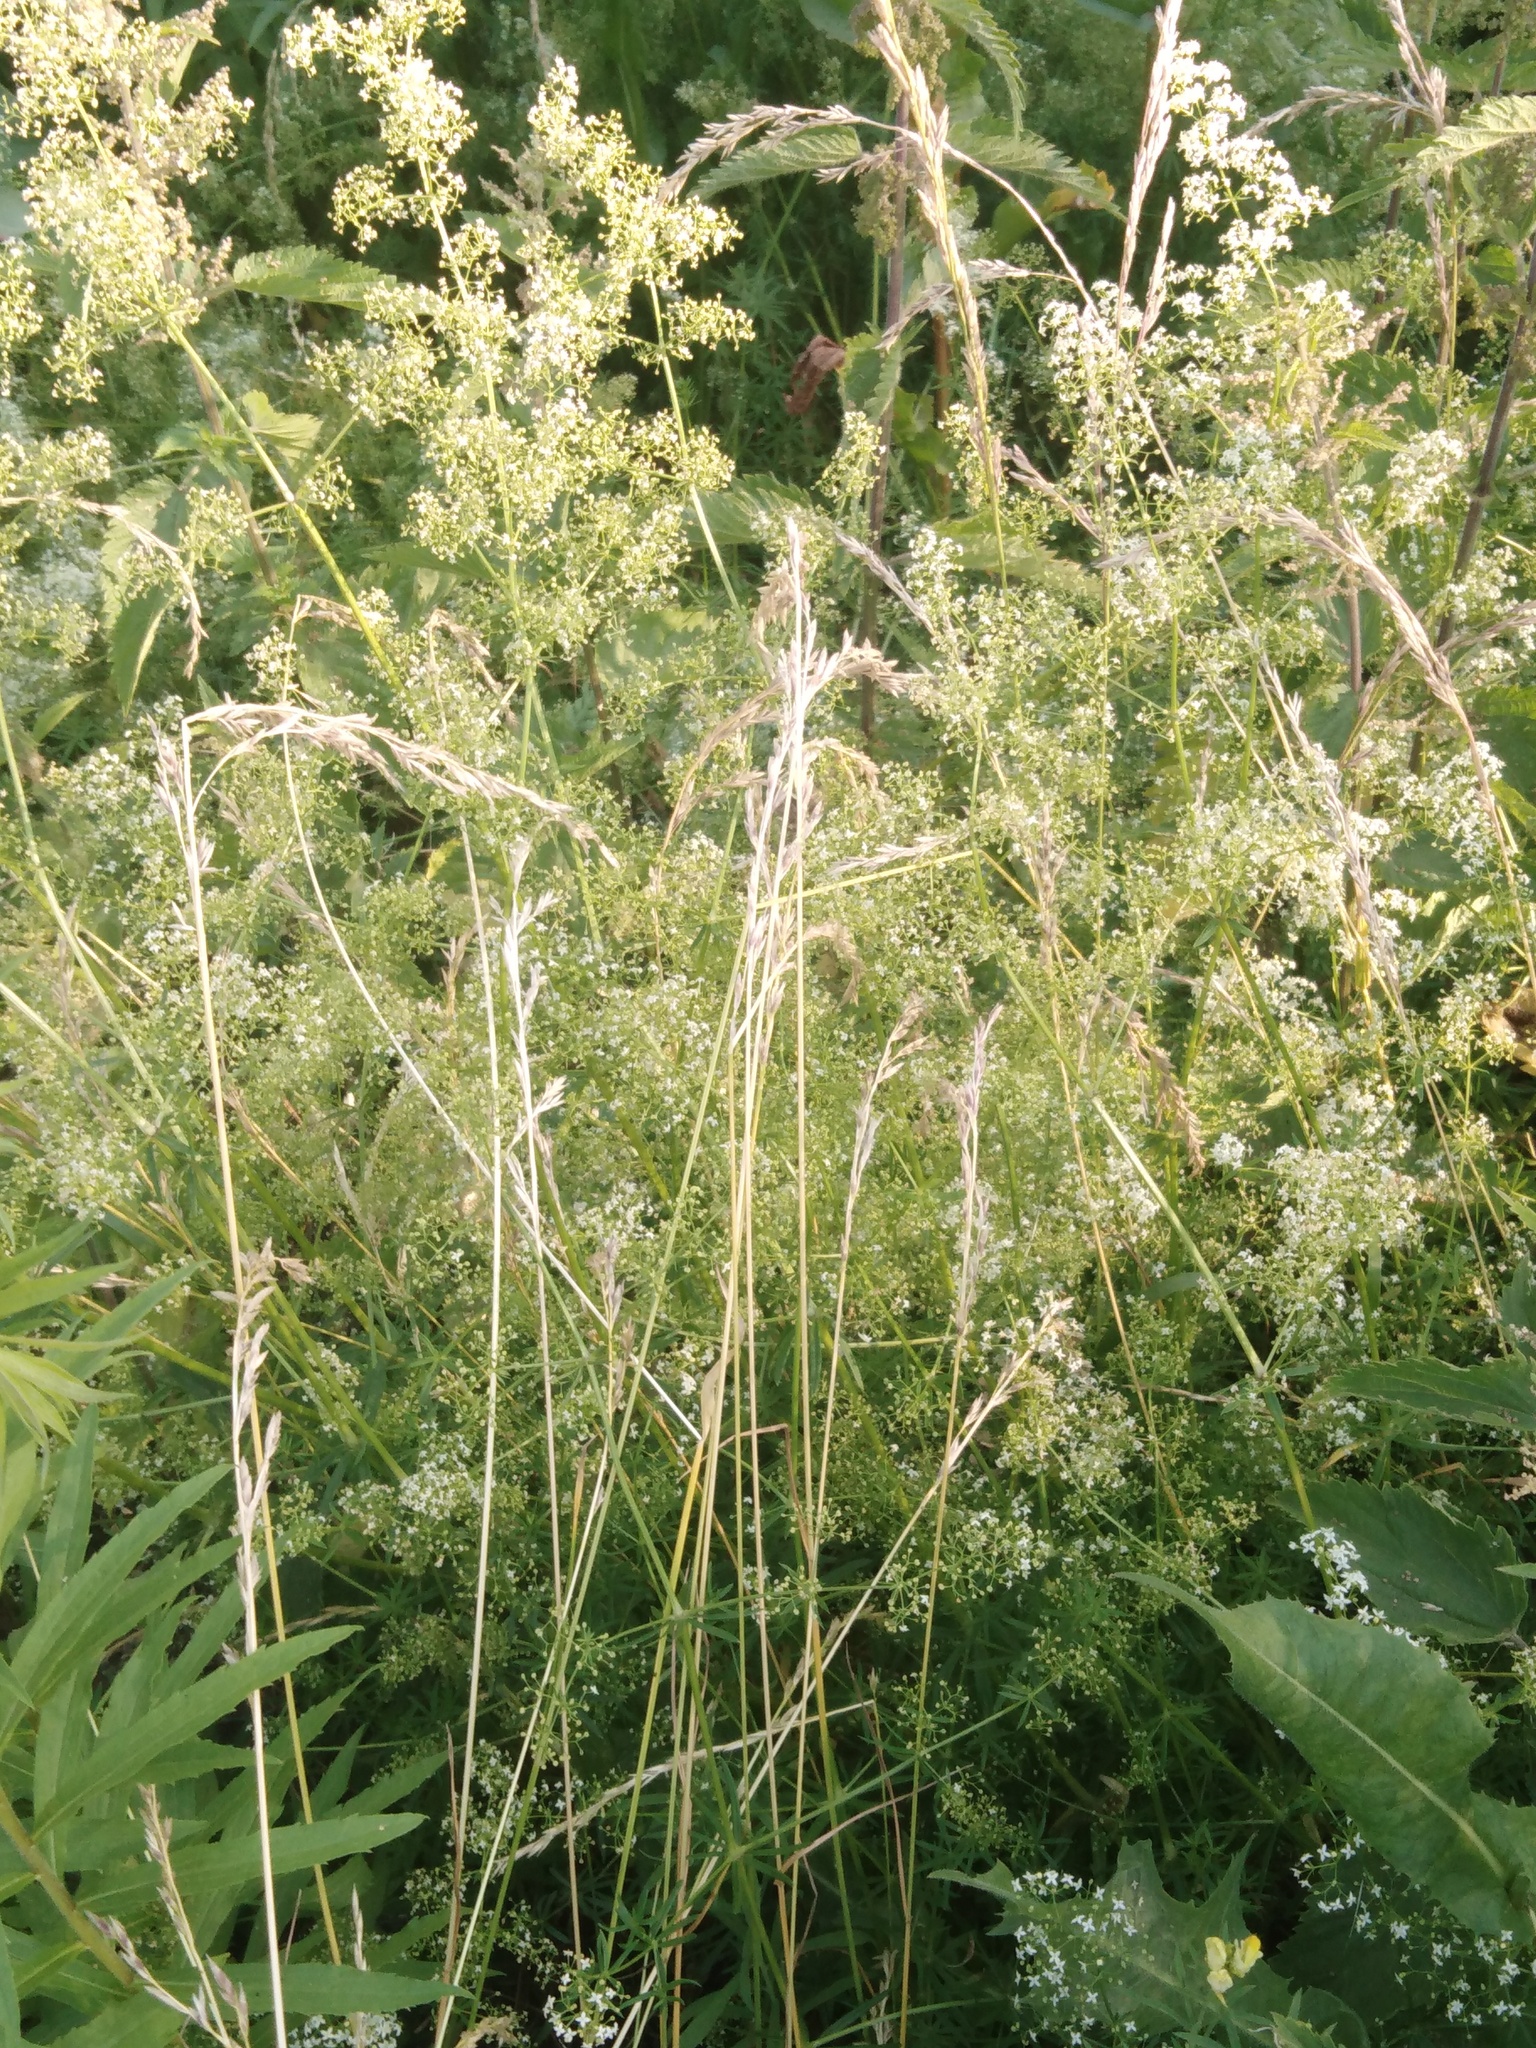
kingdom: Plantae
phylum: Tracheophyta
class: Magnoliopsida
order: Gentianales
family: Rubiaceae
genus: Galium
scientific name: Galium mollugo
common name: Hedge bedstraw
